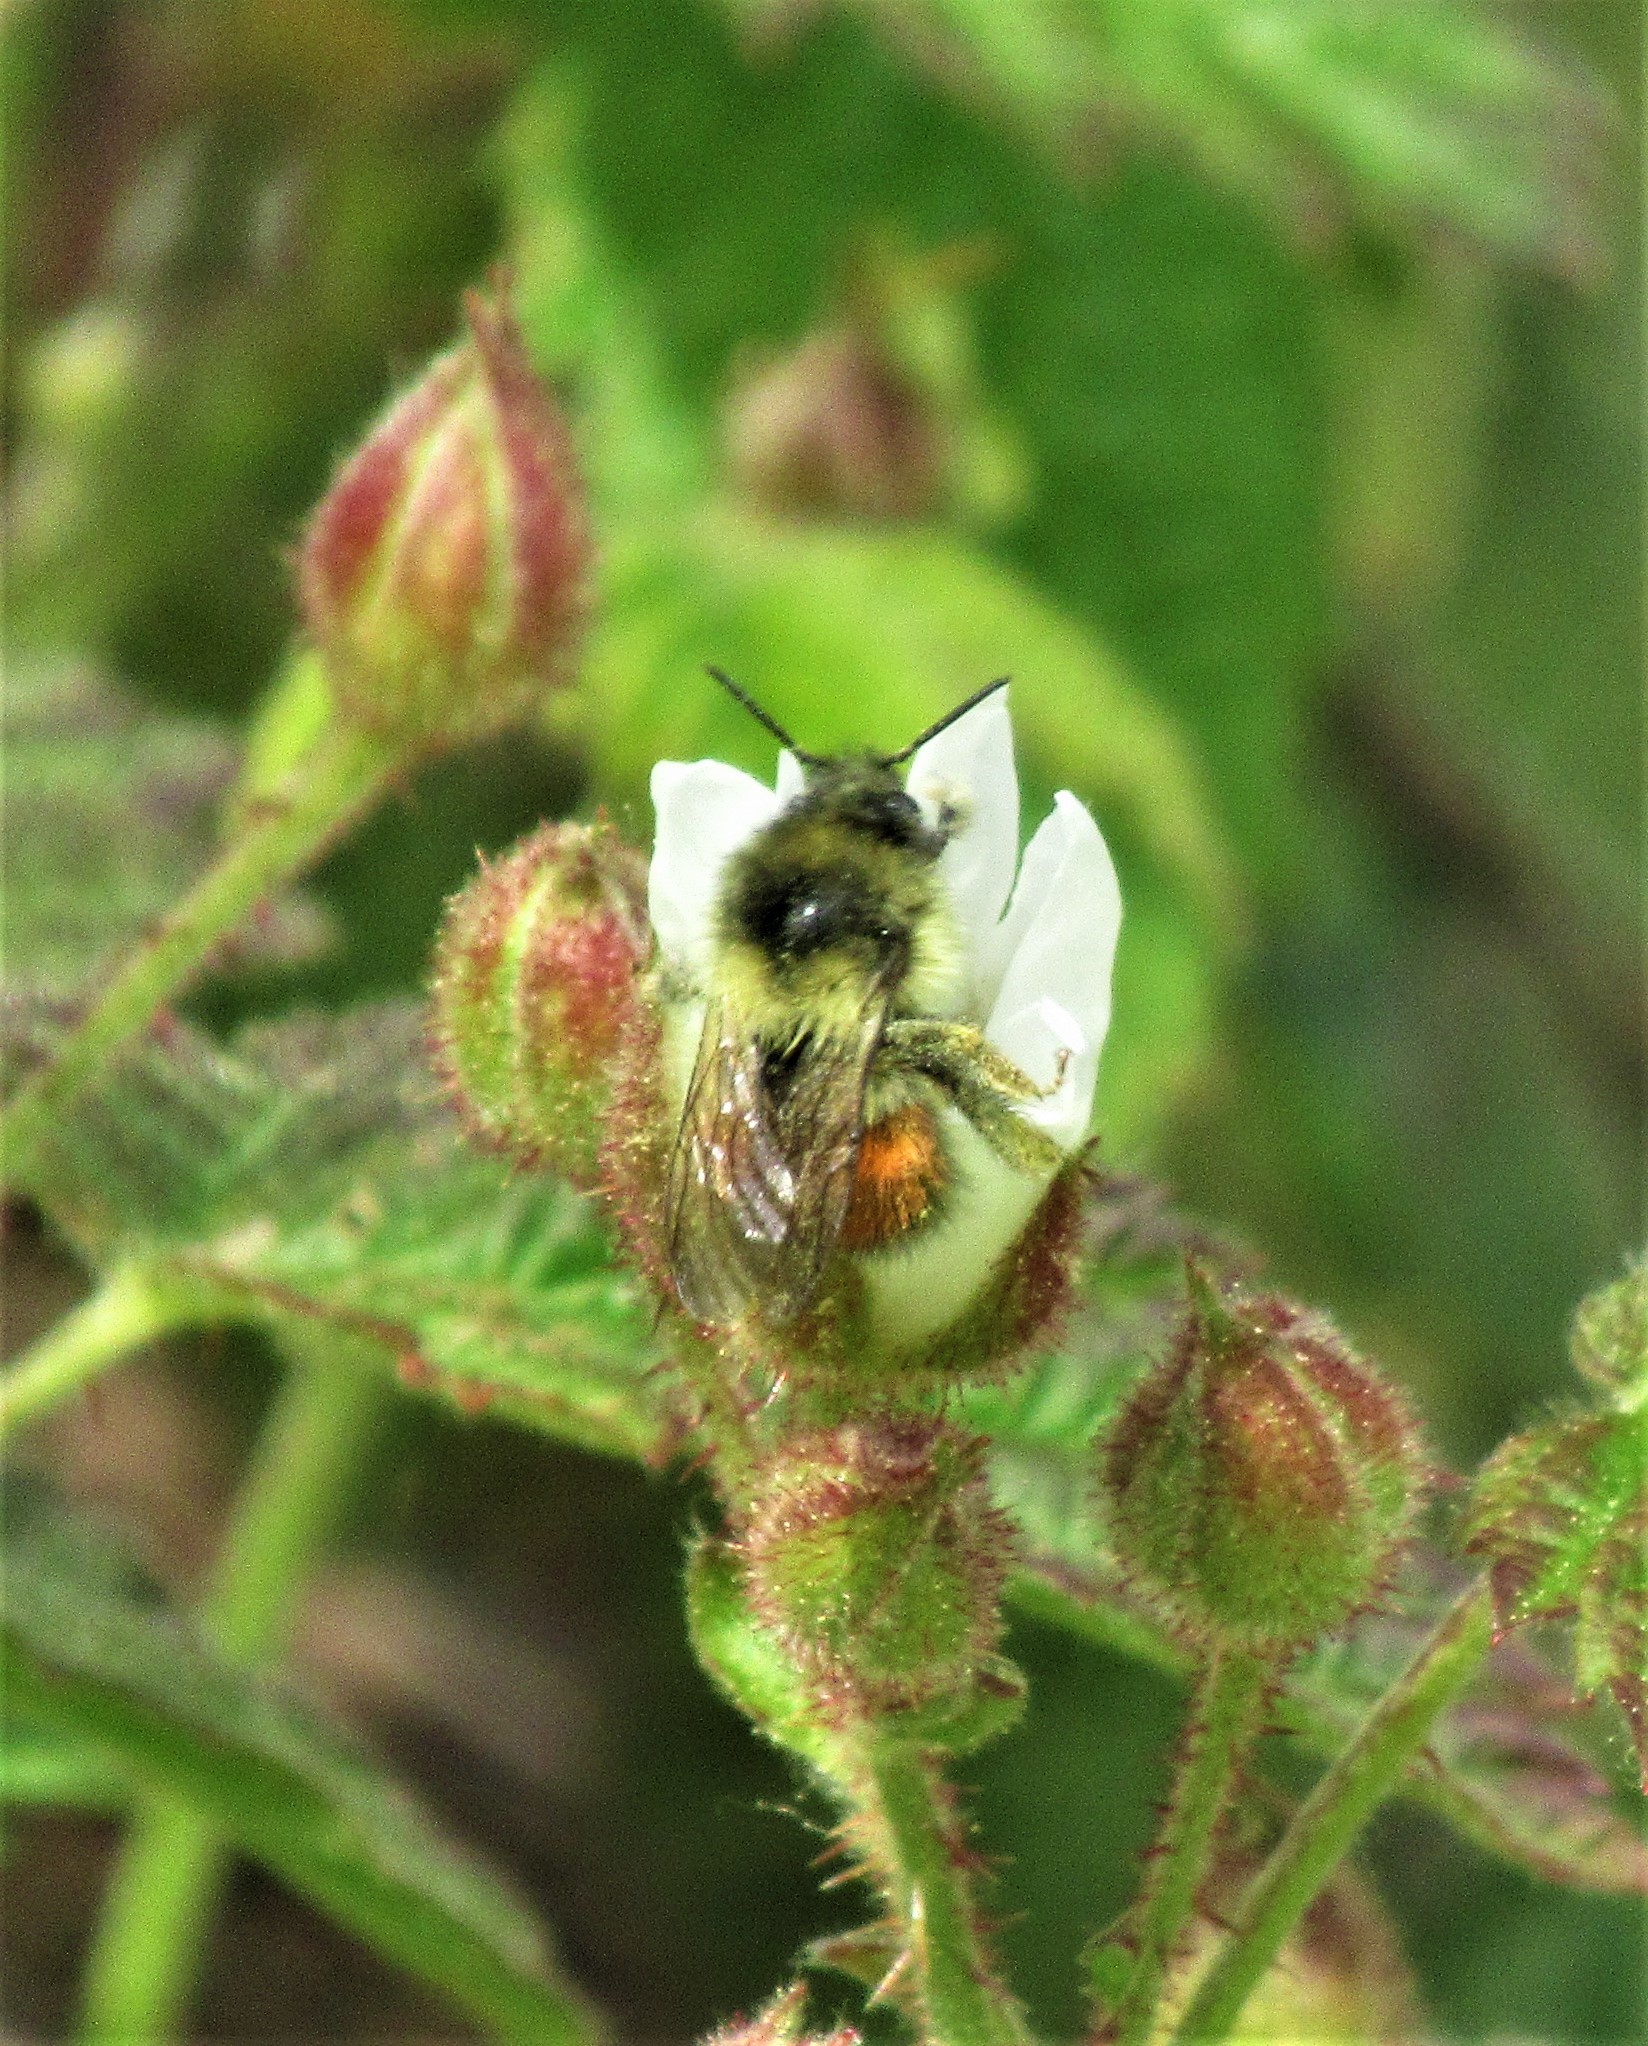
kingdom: Animalia
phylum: Arthropoda
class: Insecta
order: Hymenoptera
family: Apidae
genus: Bombus
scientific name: Bombus melanopygus
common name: Black tail bumble bee
